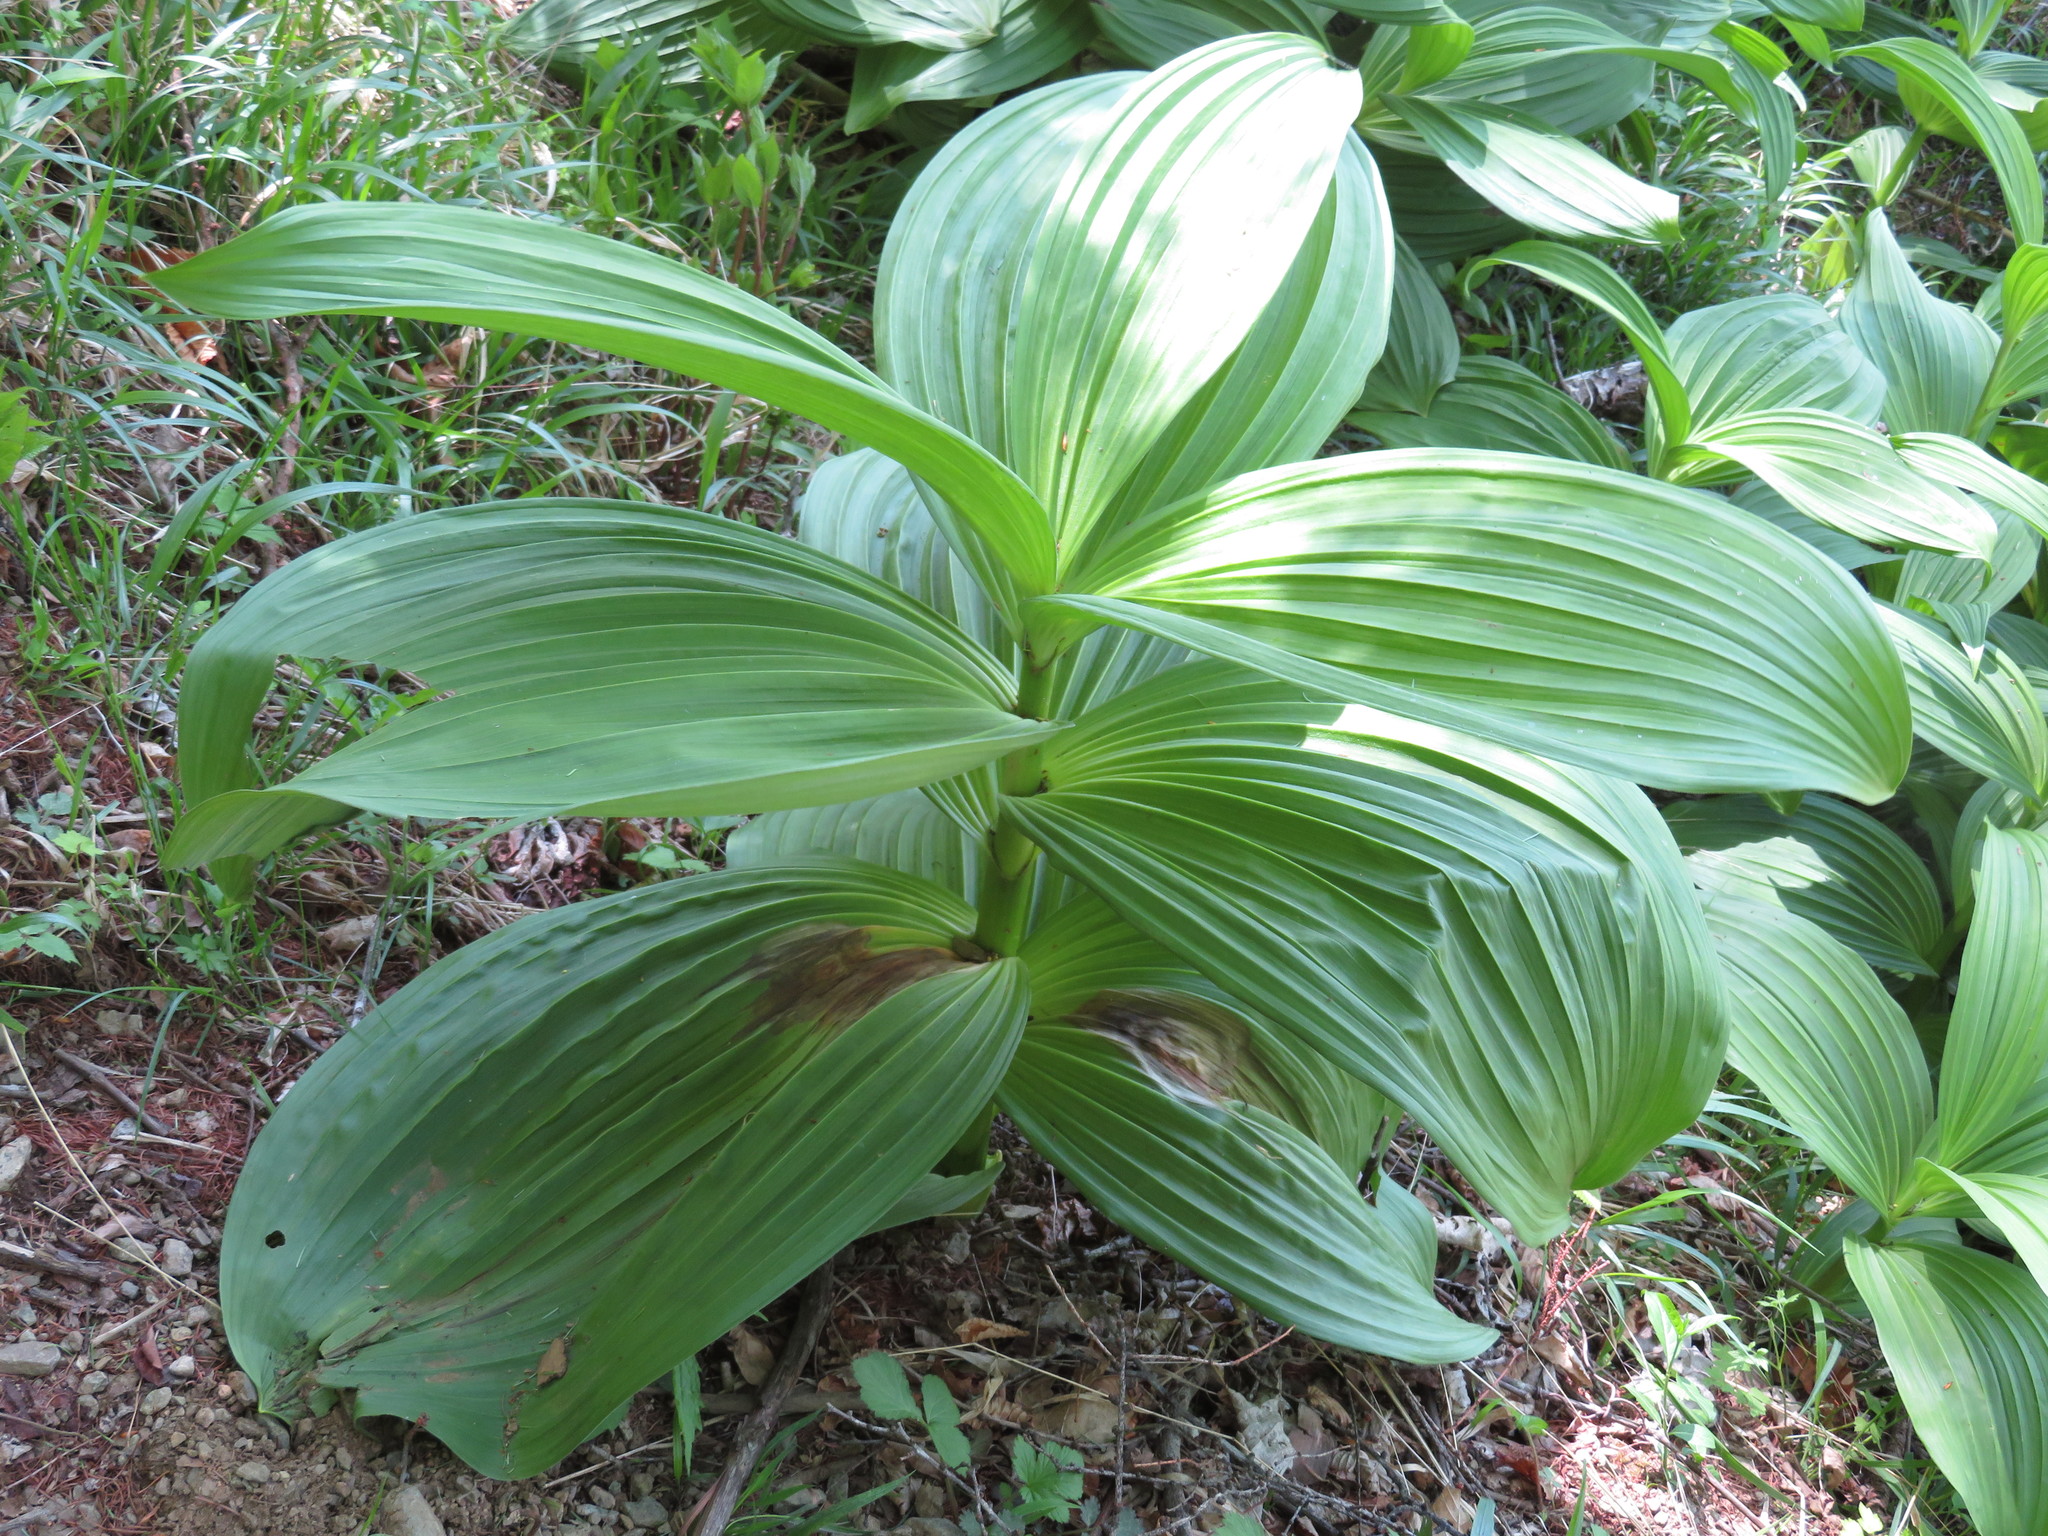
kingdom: Plantae
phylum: Tracheophyta
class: Liliopsida
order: Liliales
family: Melanthiaceae
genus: Veratrum
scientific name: Veratrum oxysepalum
